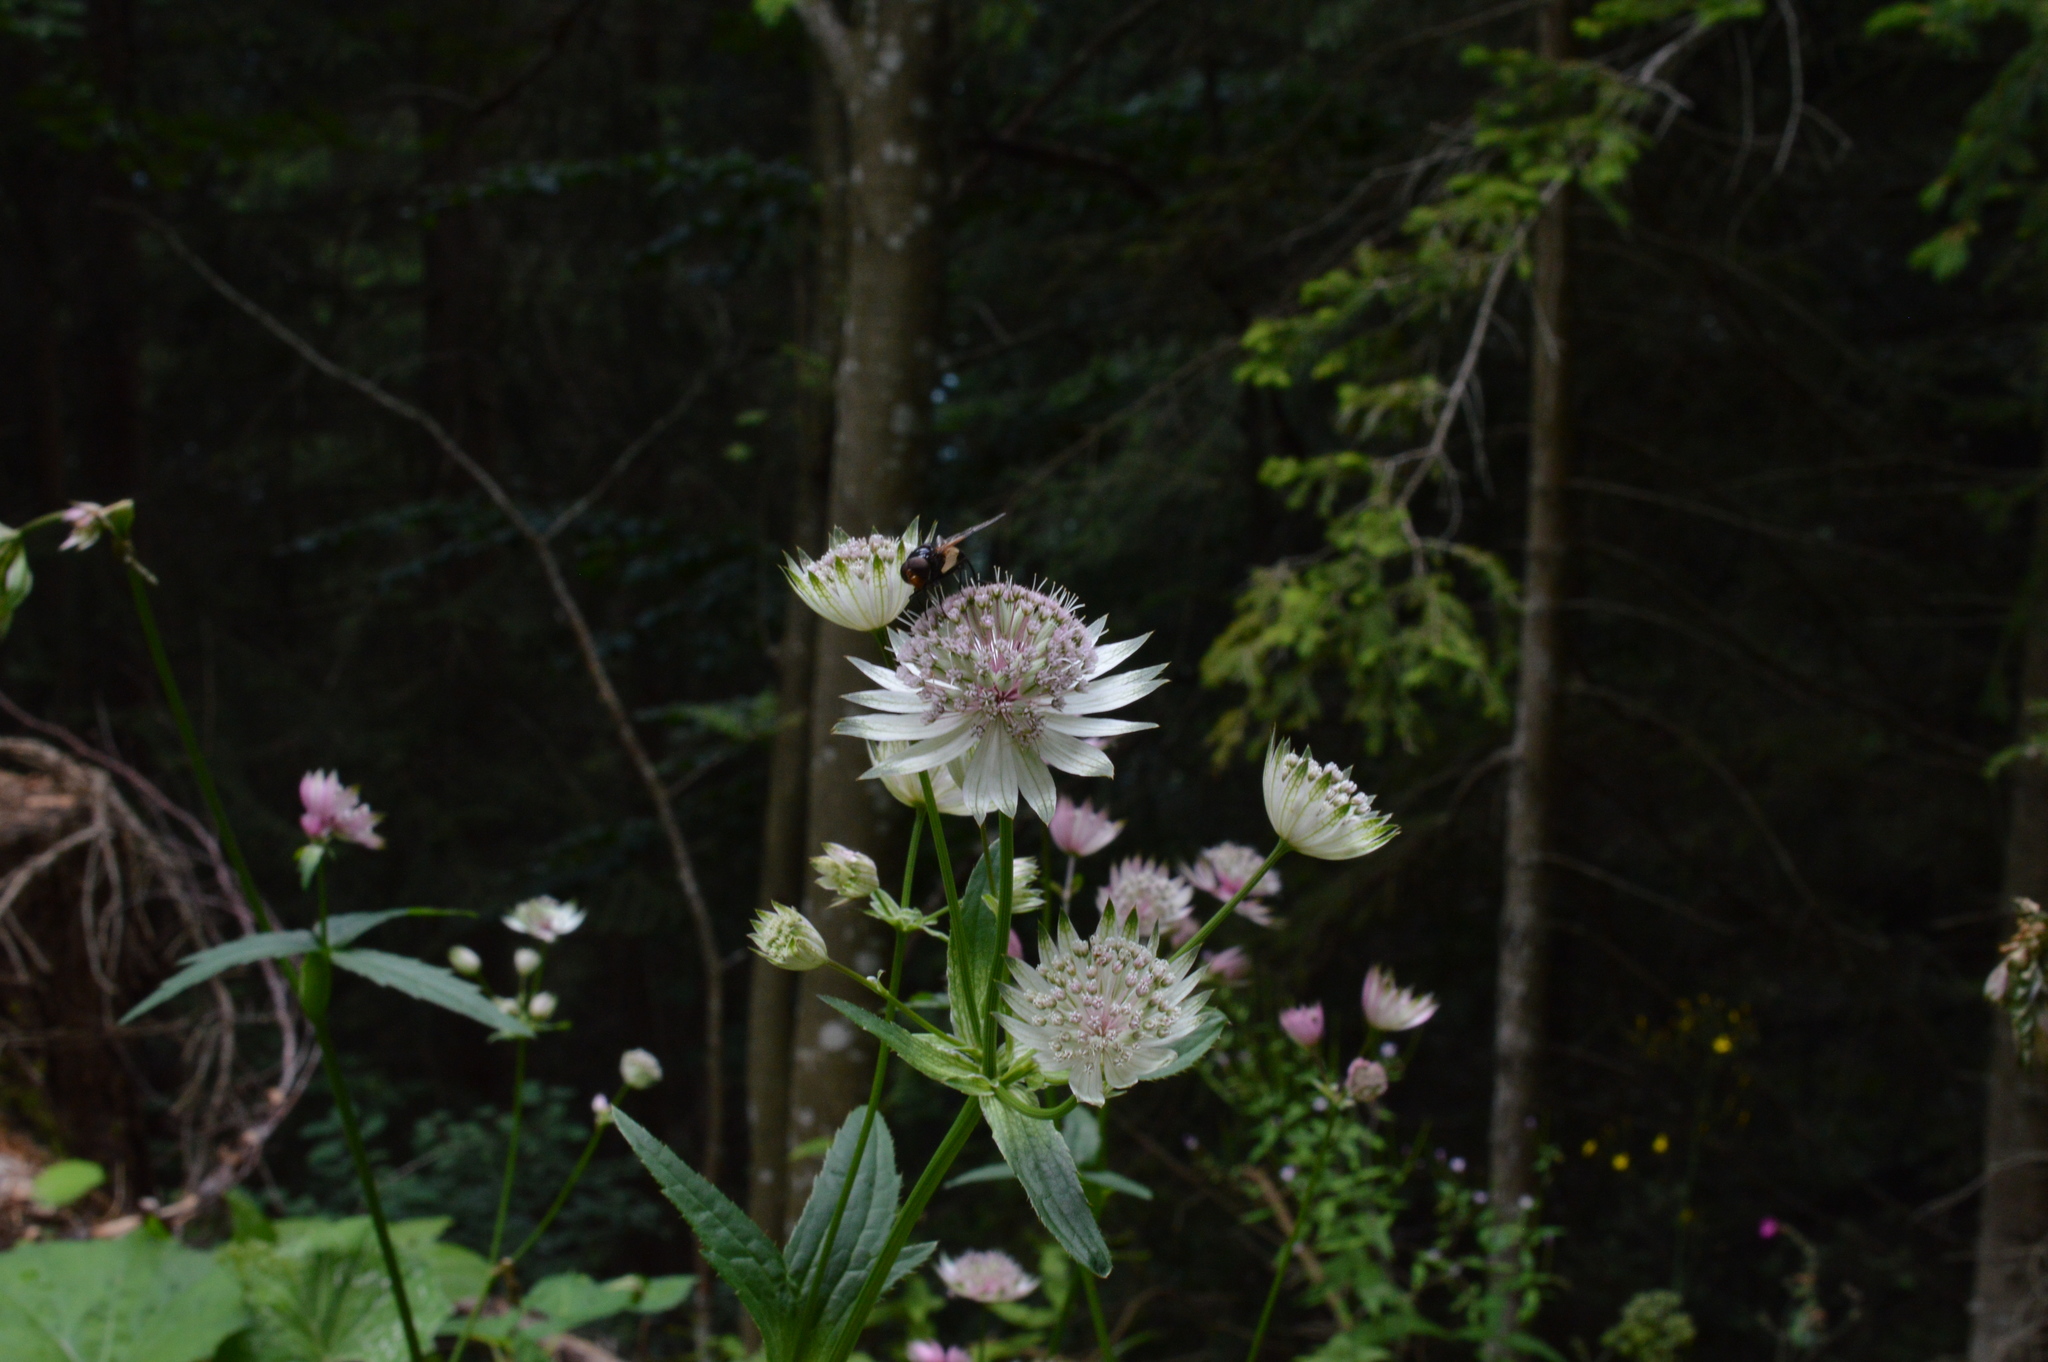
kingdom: Plantae
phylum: Tracheophyta
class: Magnoliopsida
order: Apiales
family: Apiaceae
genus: Astrantia
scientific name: Astrantia major
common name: Greater masterwort
